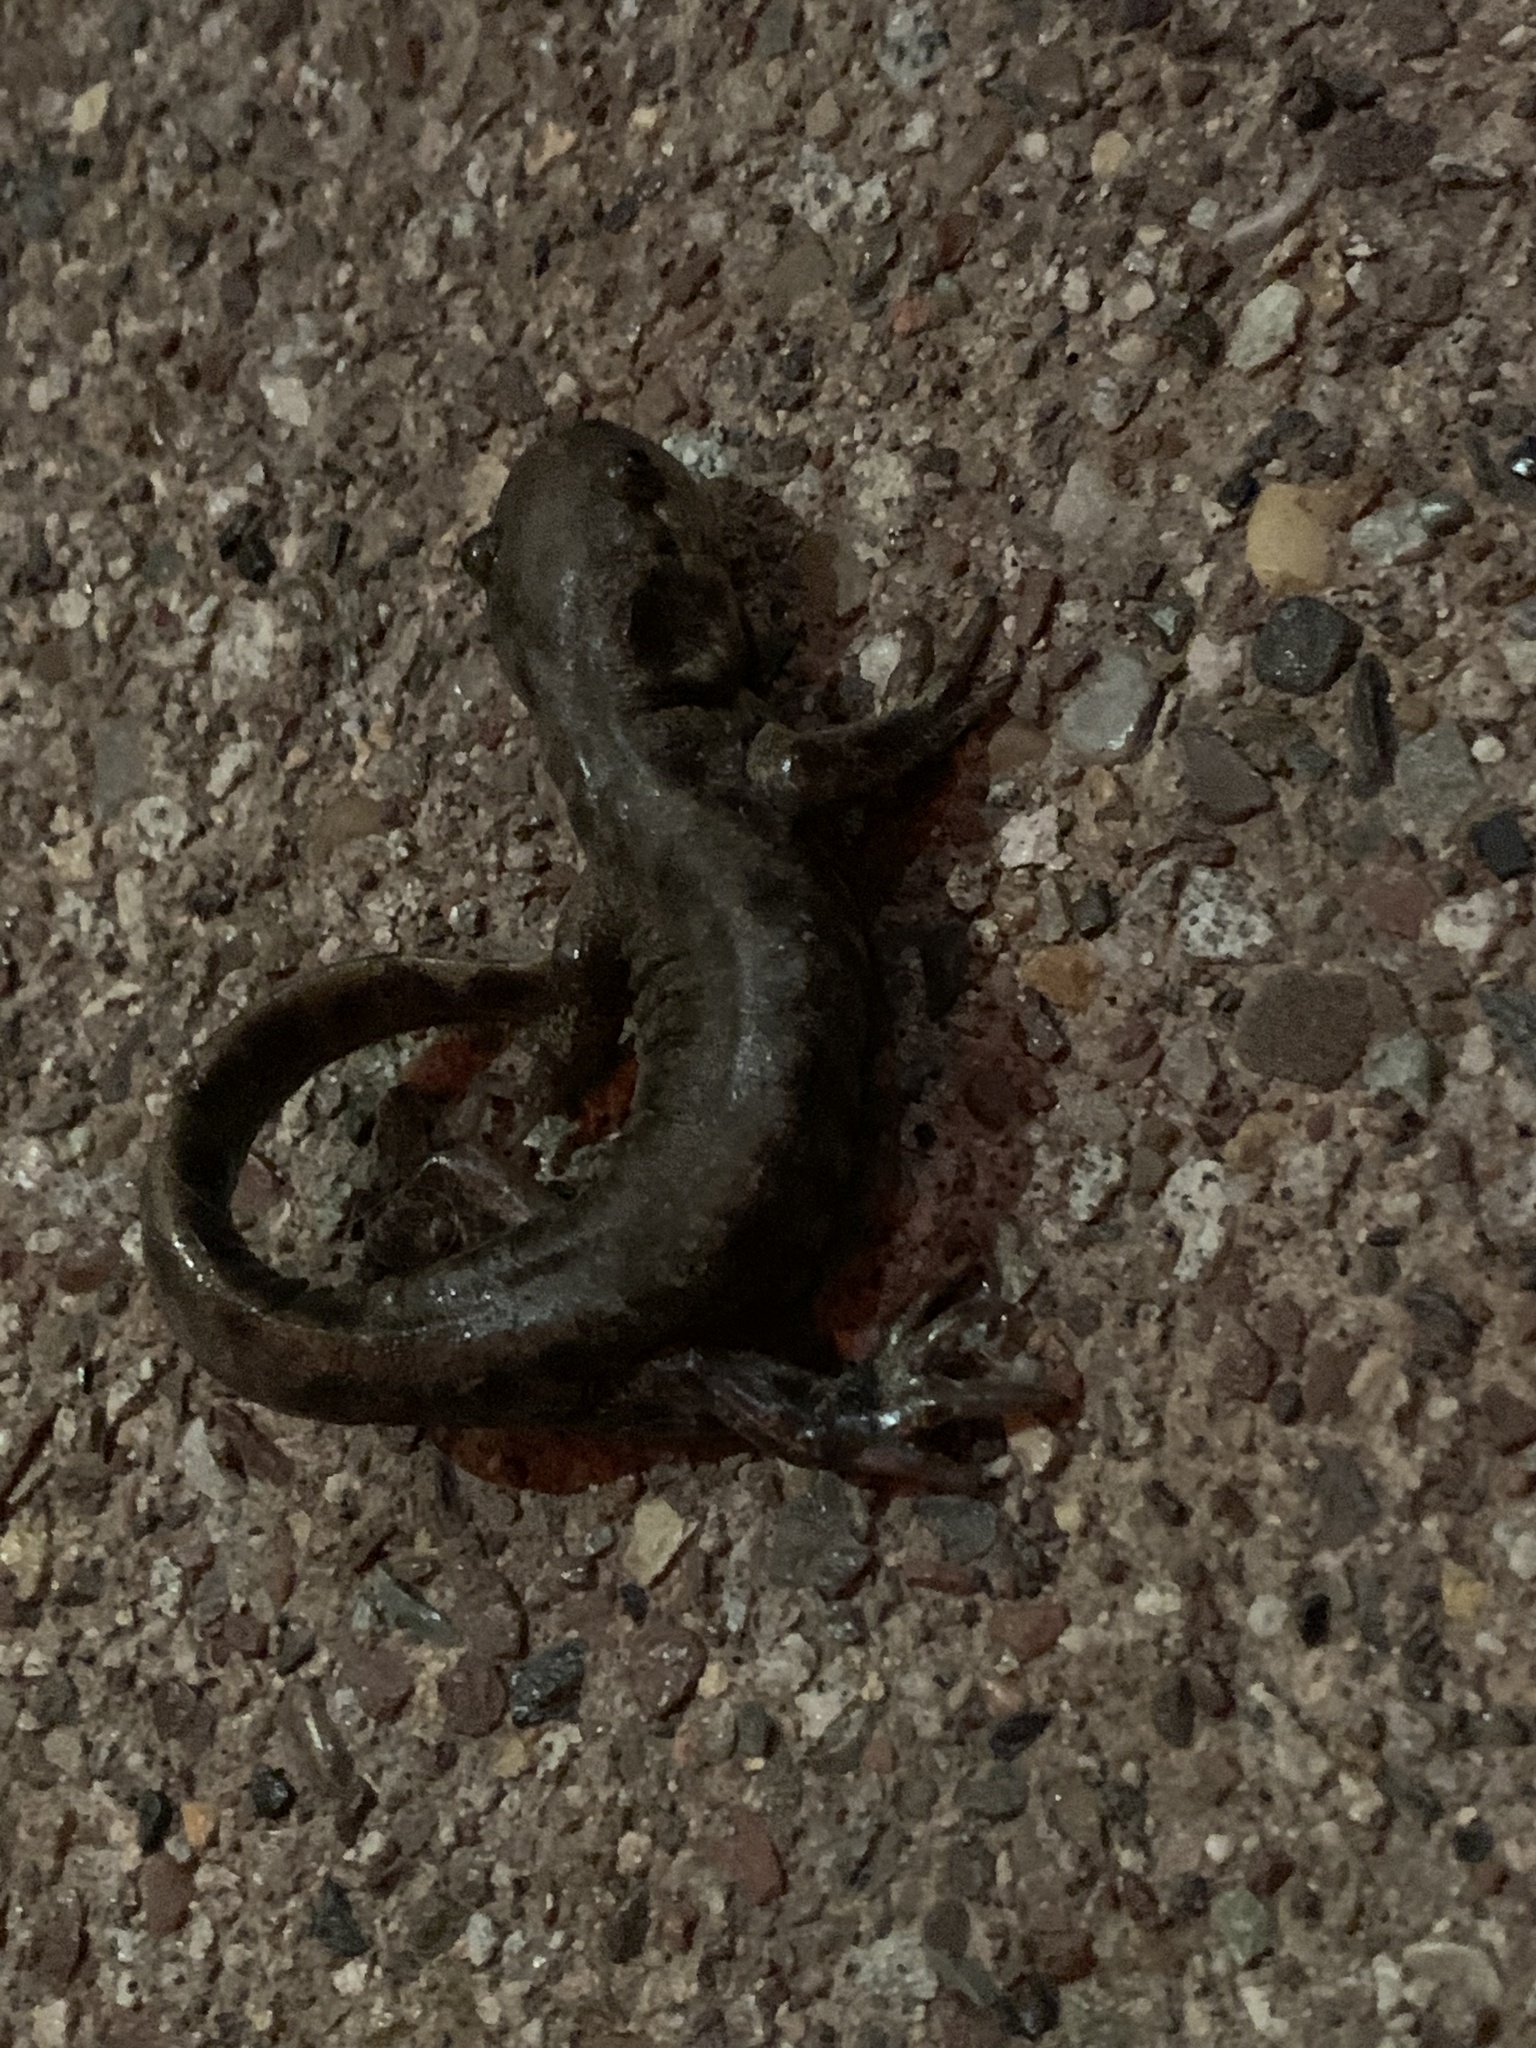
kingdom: Animalia
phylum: Chordata
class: Amphibia
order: Caudata
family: Ambystomatidae
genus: Ambystoma
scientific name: Ambystoma mavortium
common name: Western tiger salamander
